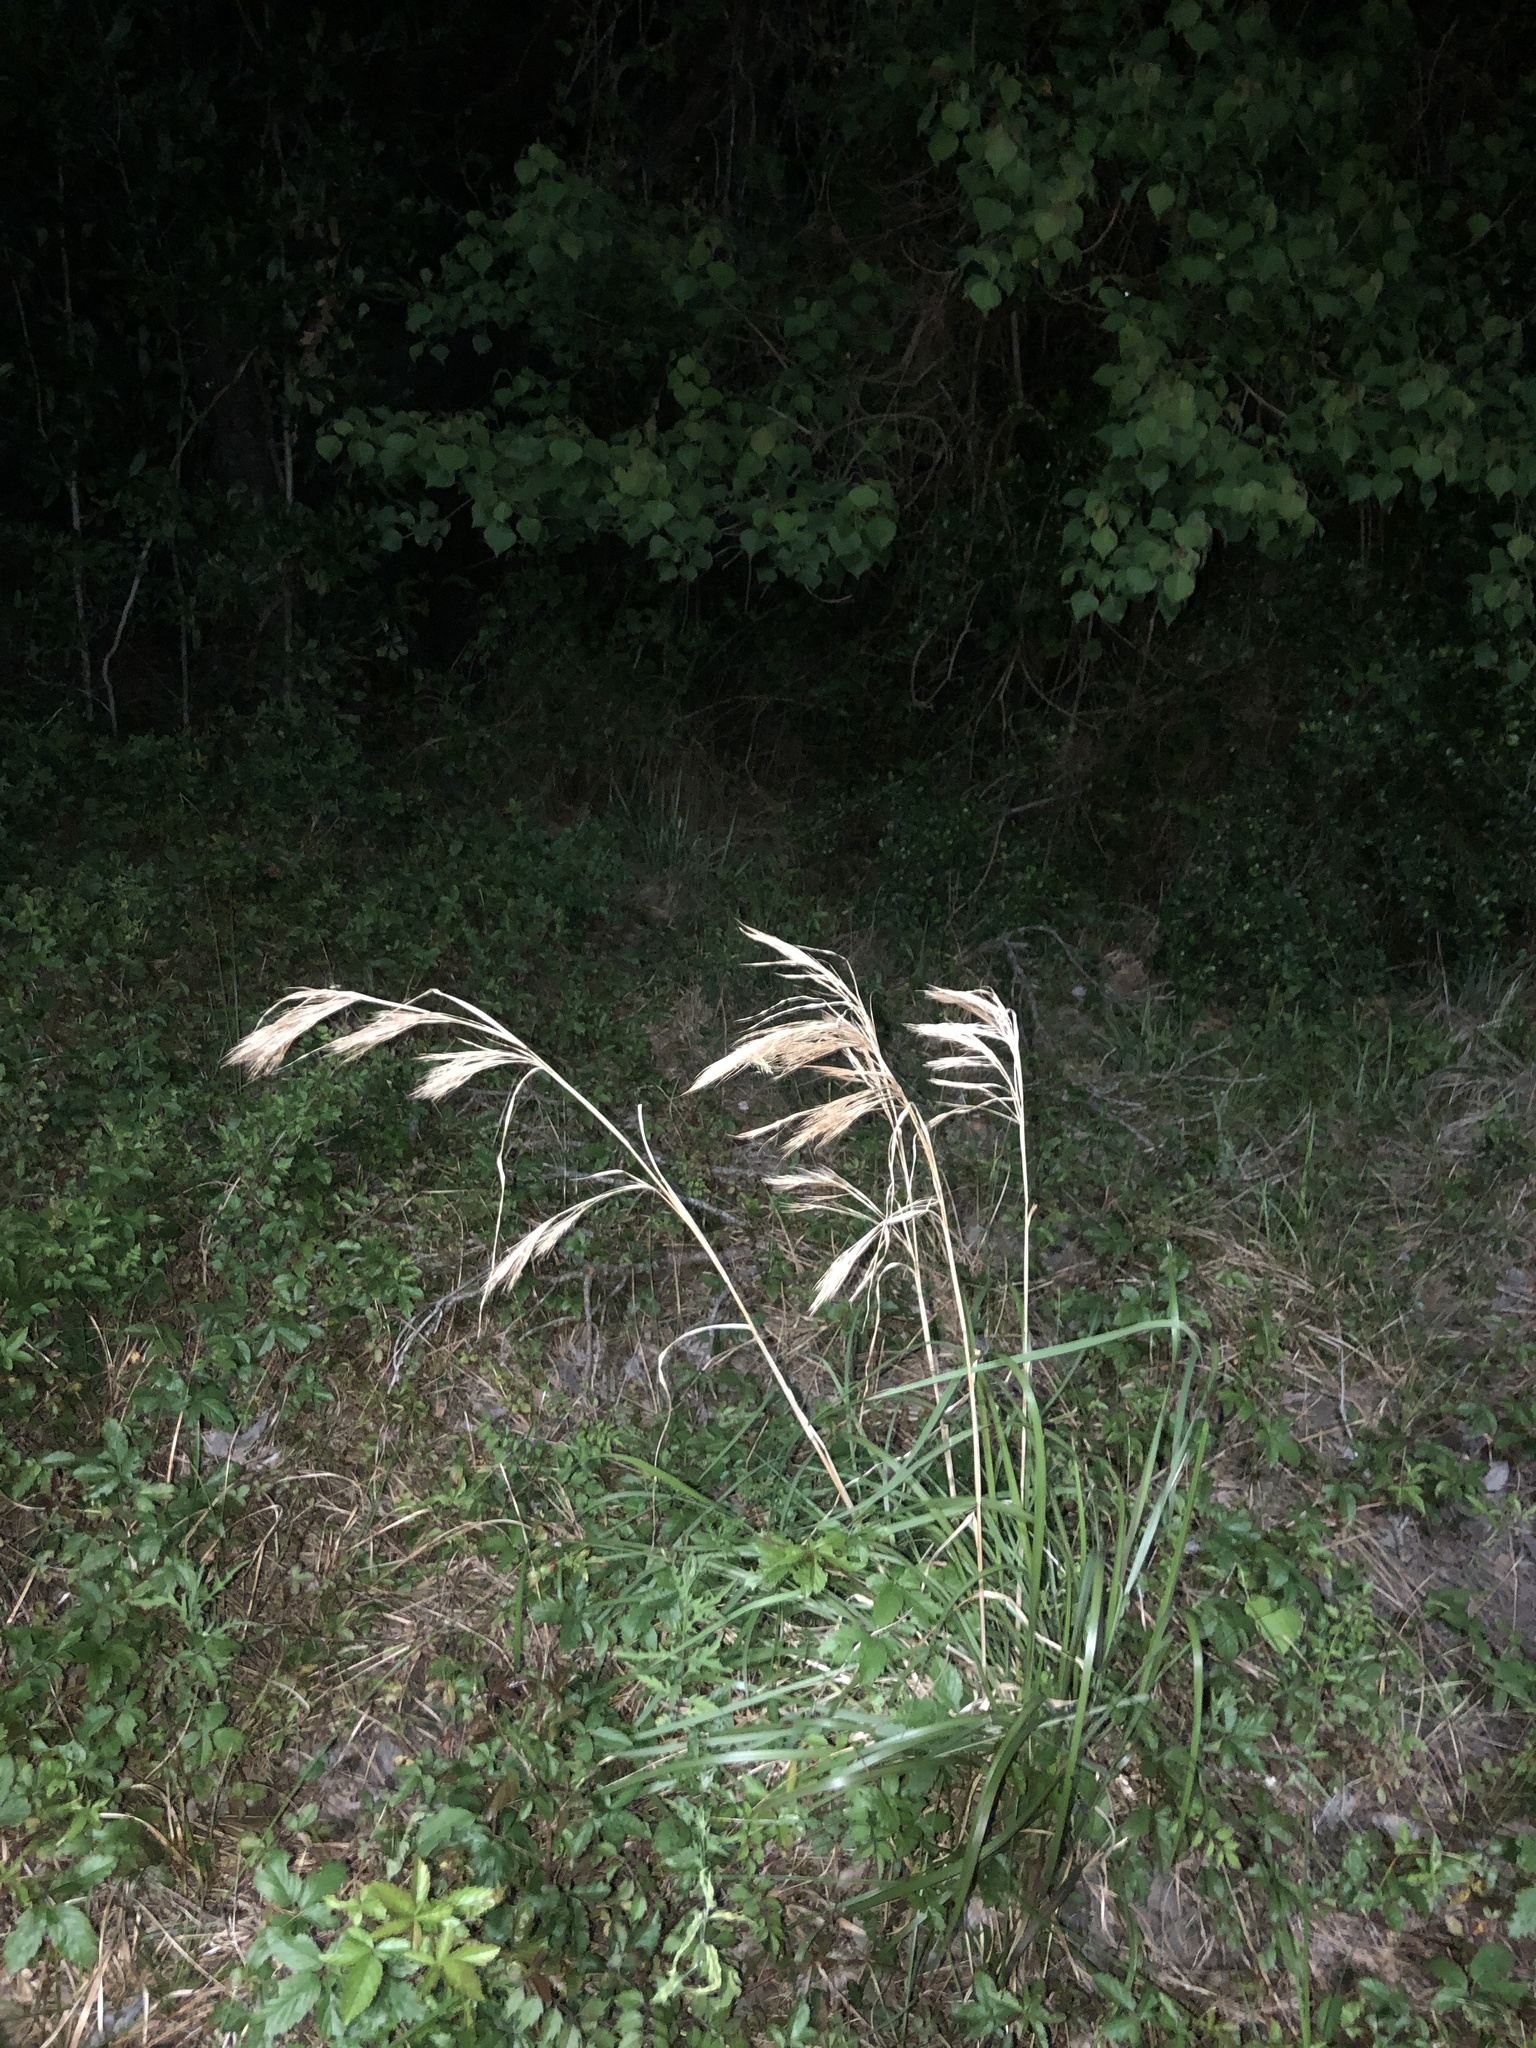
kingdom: Plantae
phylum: Tracheophyta
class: Liliopsida
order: Poales
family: Poaceae
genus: Andropogon
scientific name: Andropogon tenuispatheus
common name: Bushy bluestem
